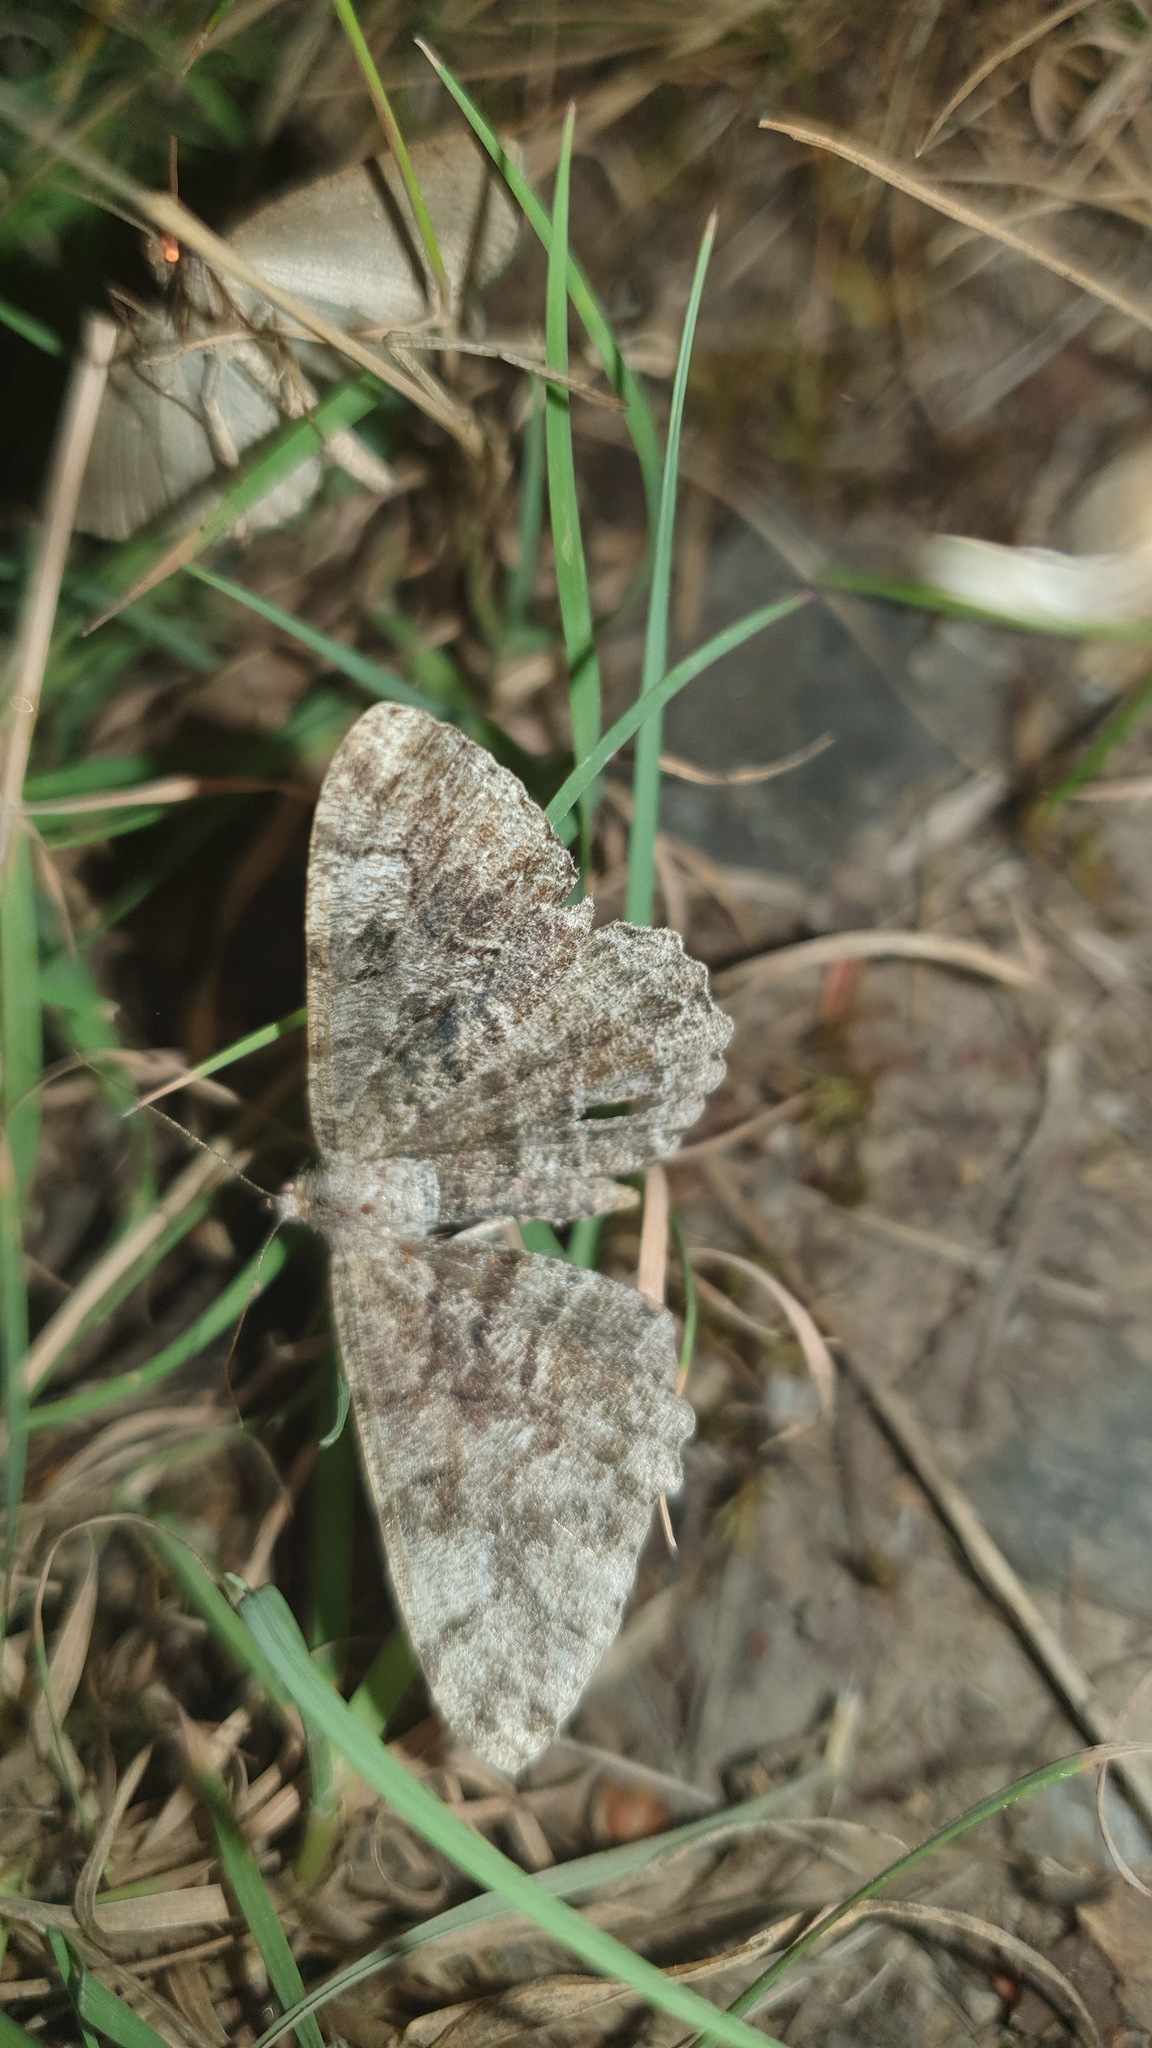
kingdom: Animalia
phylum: Arthropoda
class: Insecta
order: Lepidoptera
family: Geometridae
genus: Alcis
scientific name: Alcis repandata
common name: Mottled beauty
